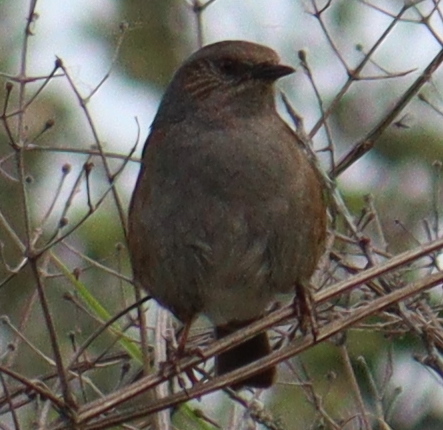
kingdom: Animalia
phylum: Chordata
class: Aves
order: Passeriformes
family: Prunellidae
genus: Prunella
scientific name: Prunella modularis
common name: Dunnock
